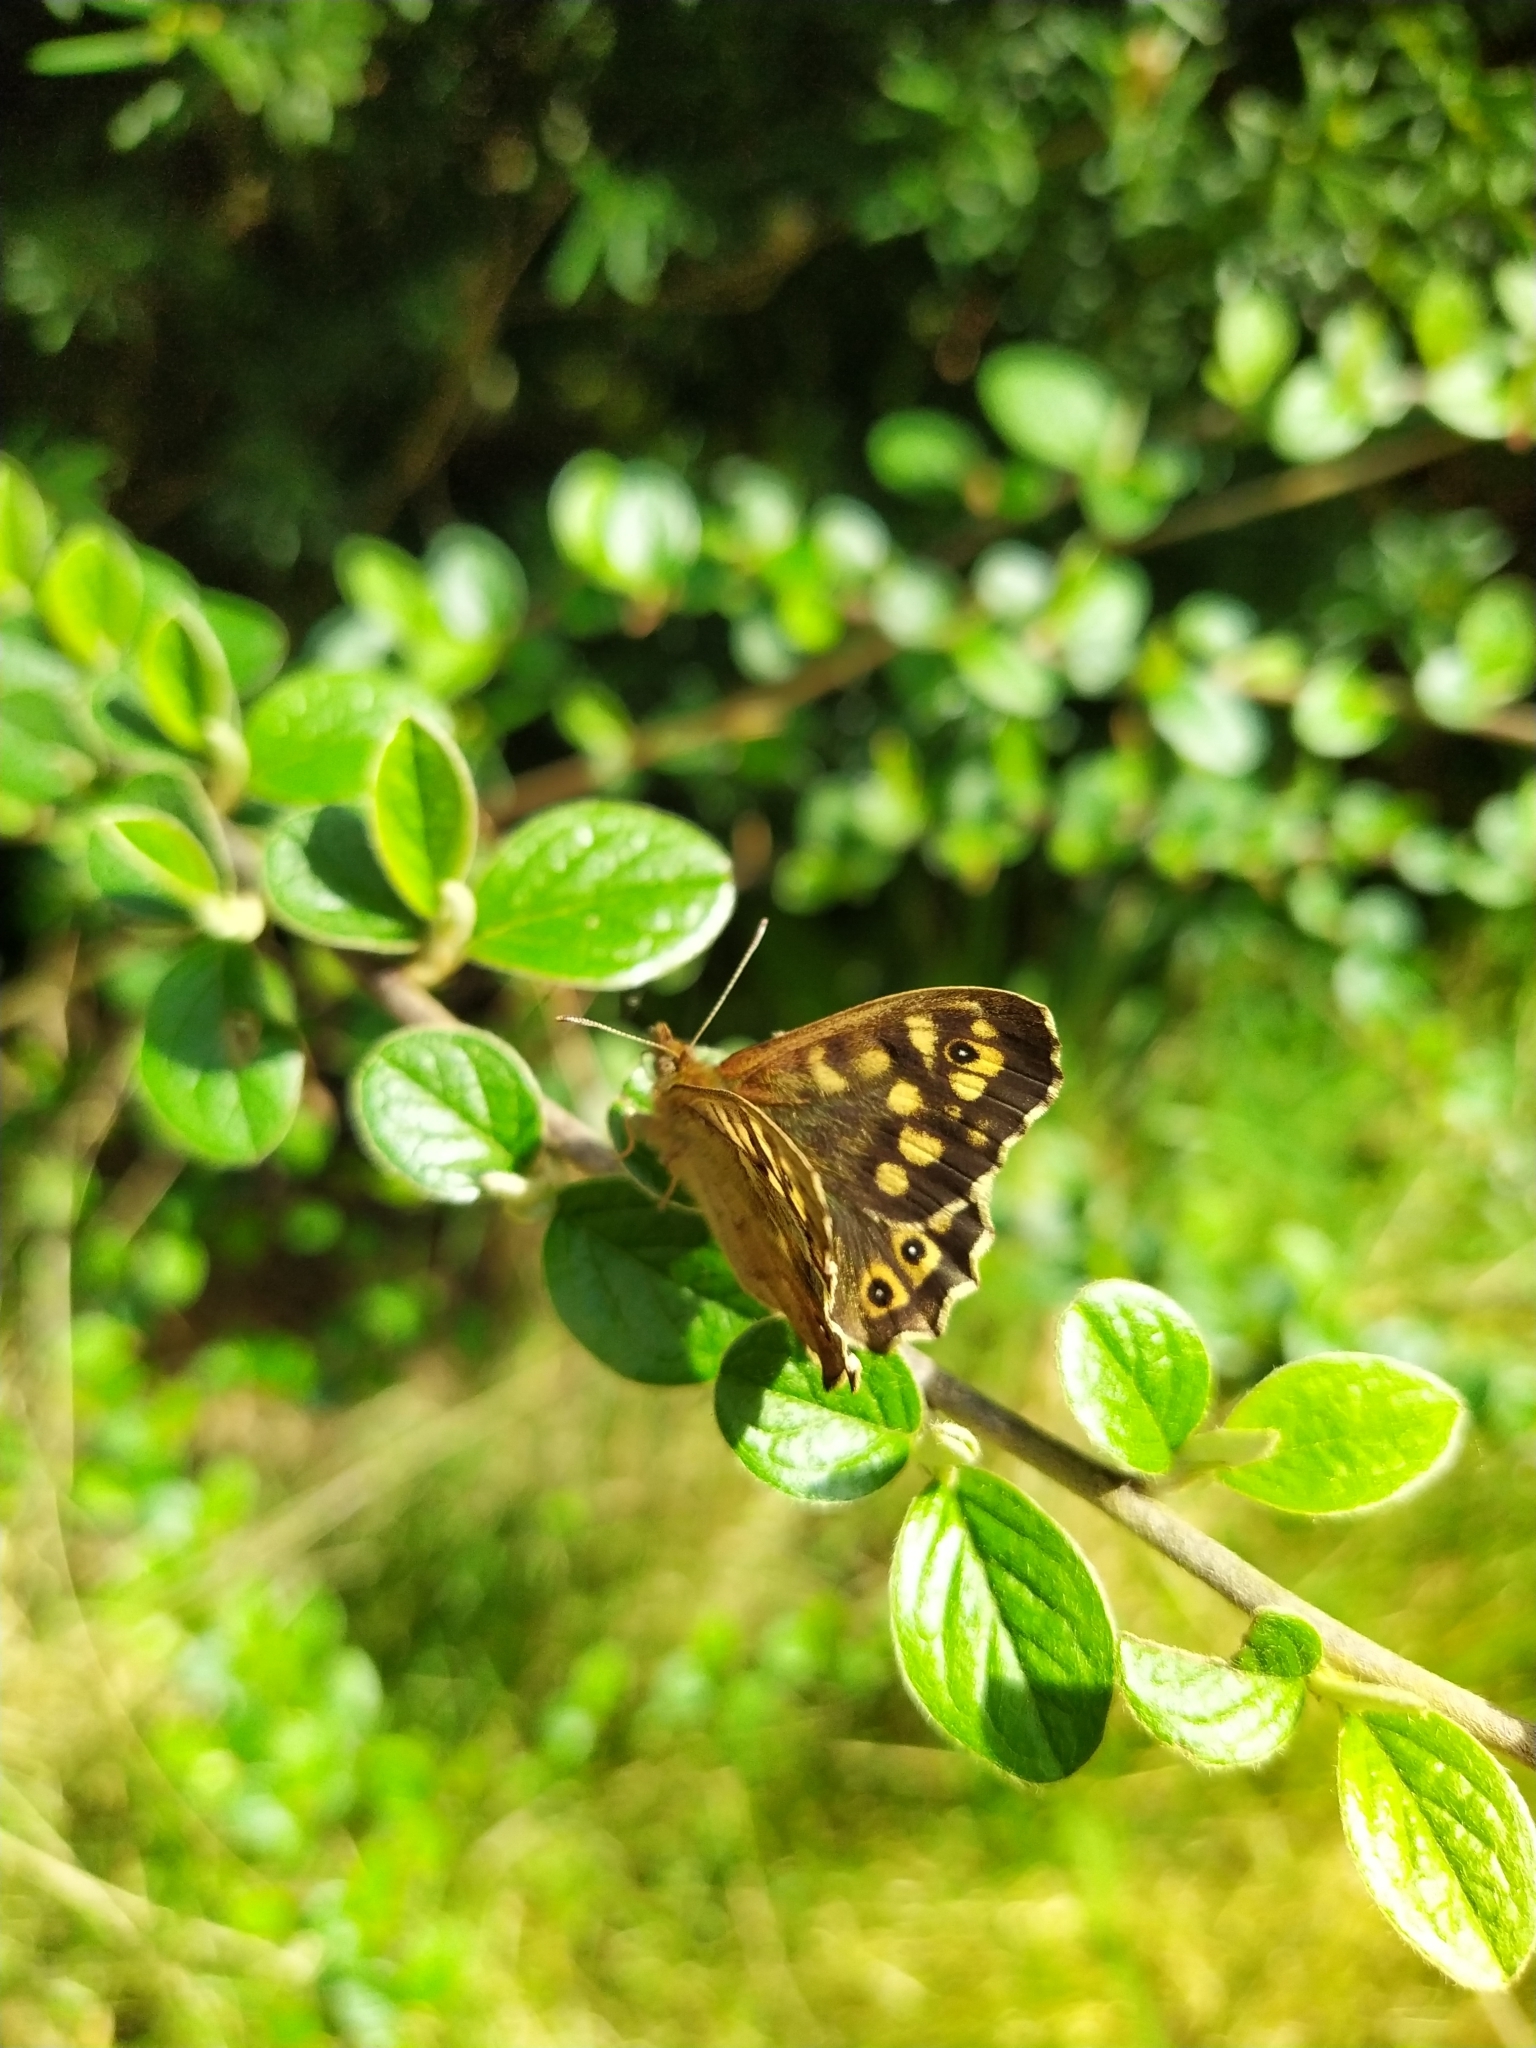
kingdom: Animalia
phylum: Arthropoda
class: Insecta
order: Lepidoptera
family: Nymphalidae
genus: Pararge
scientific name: Pararge aegeria
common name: Speckled wood
